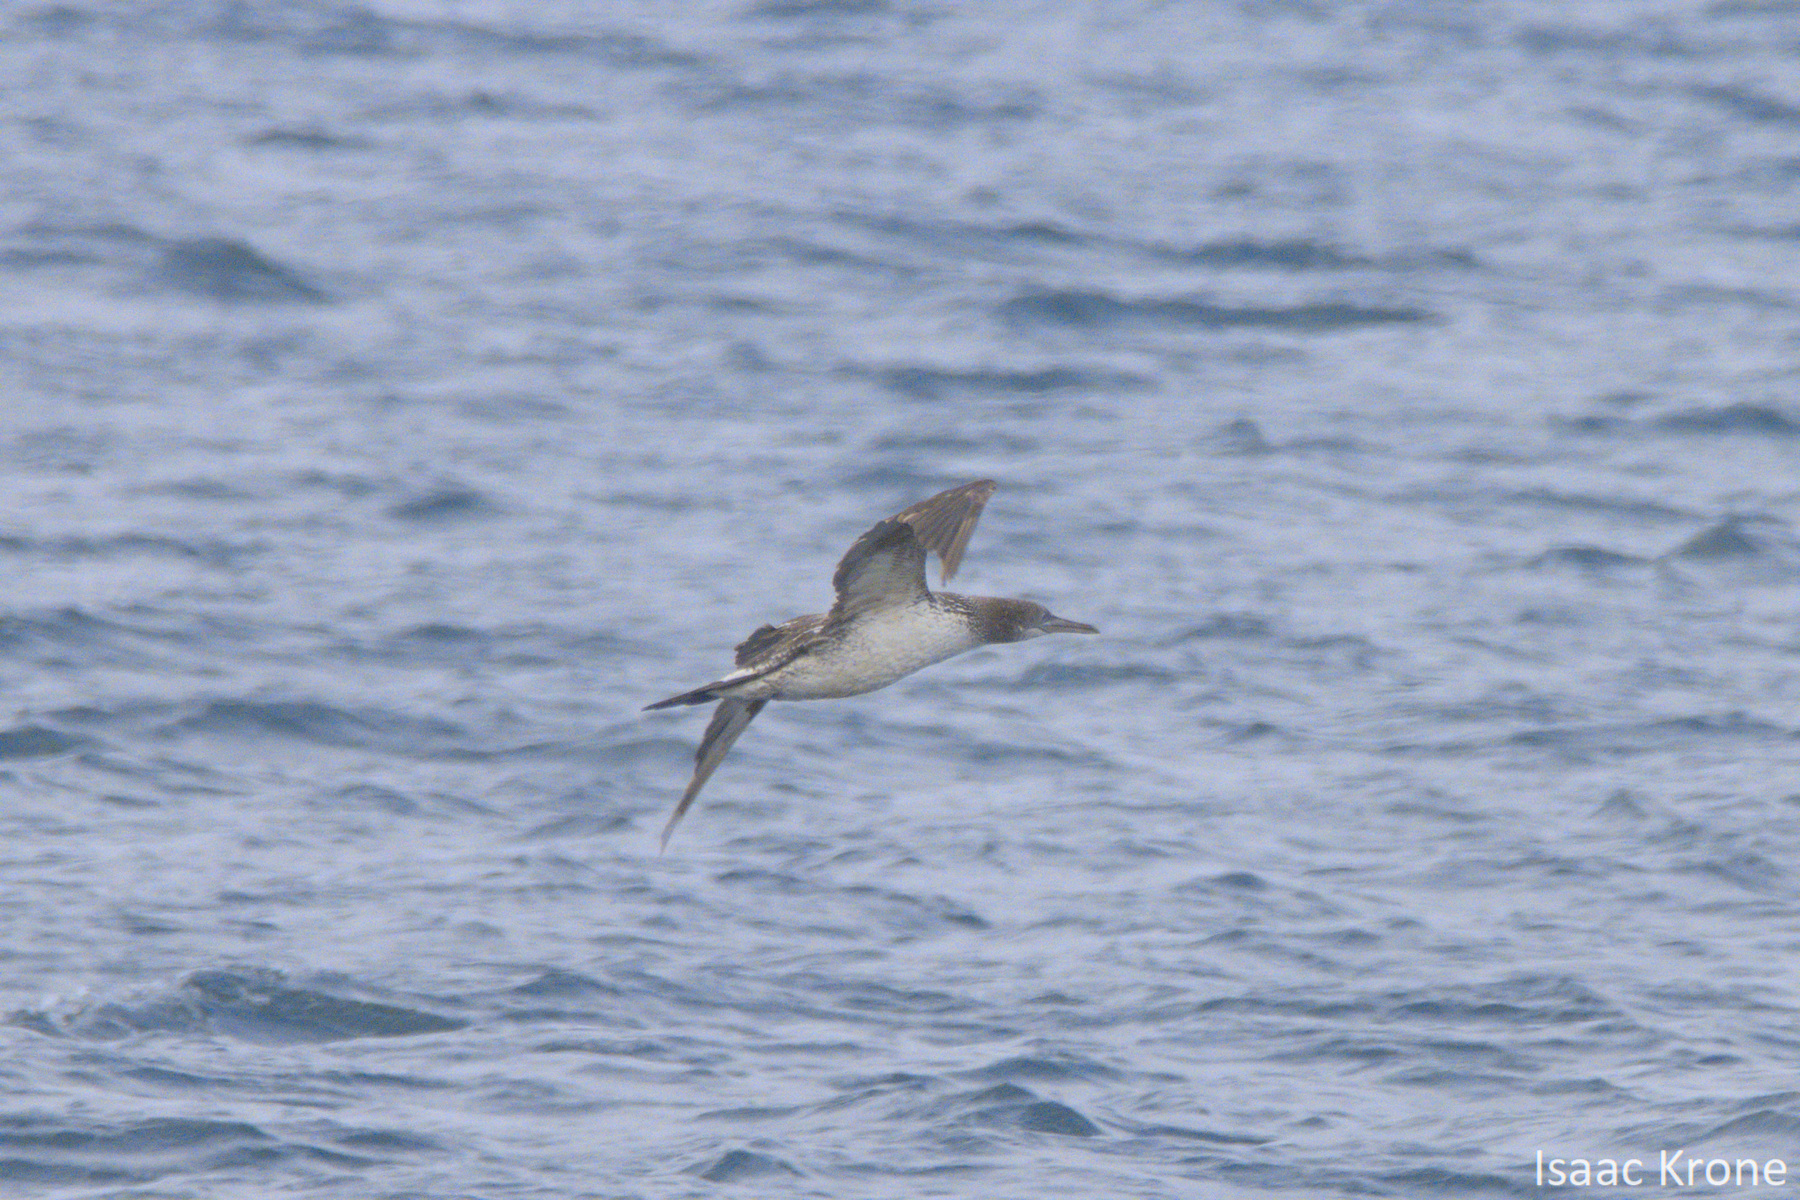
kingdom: Animalia
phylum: Chordata
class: Aves
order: Suliformes
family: Sulidae
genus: Morus
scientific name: Morus bassanus
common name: Northern gannet
